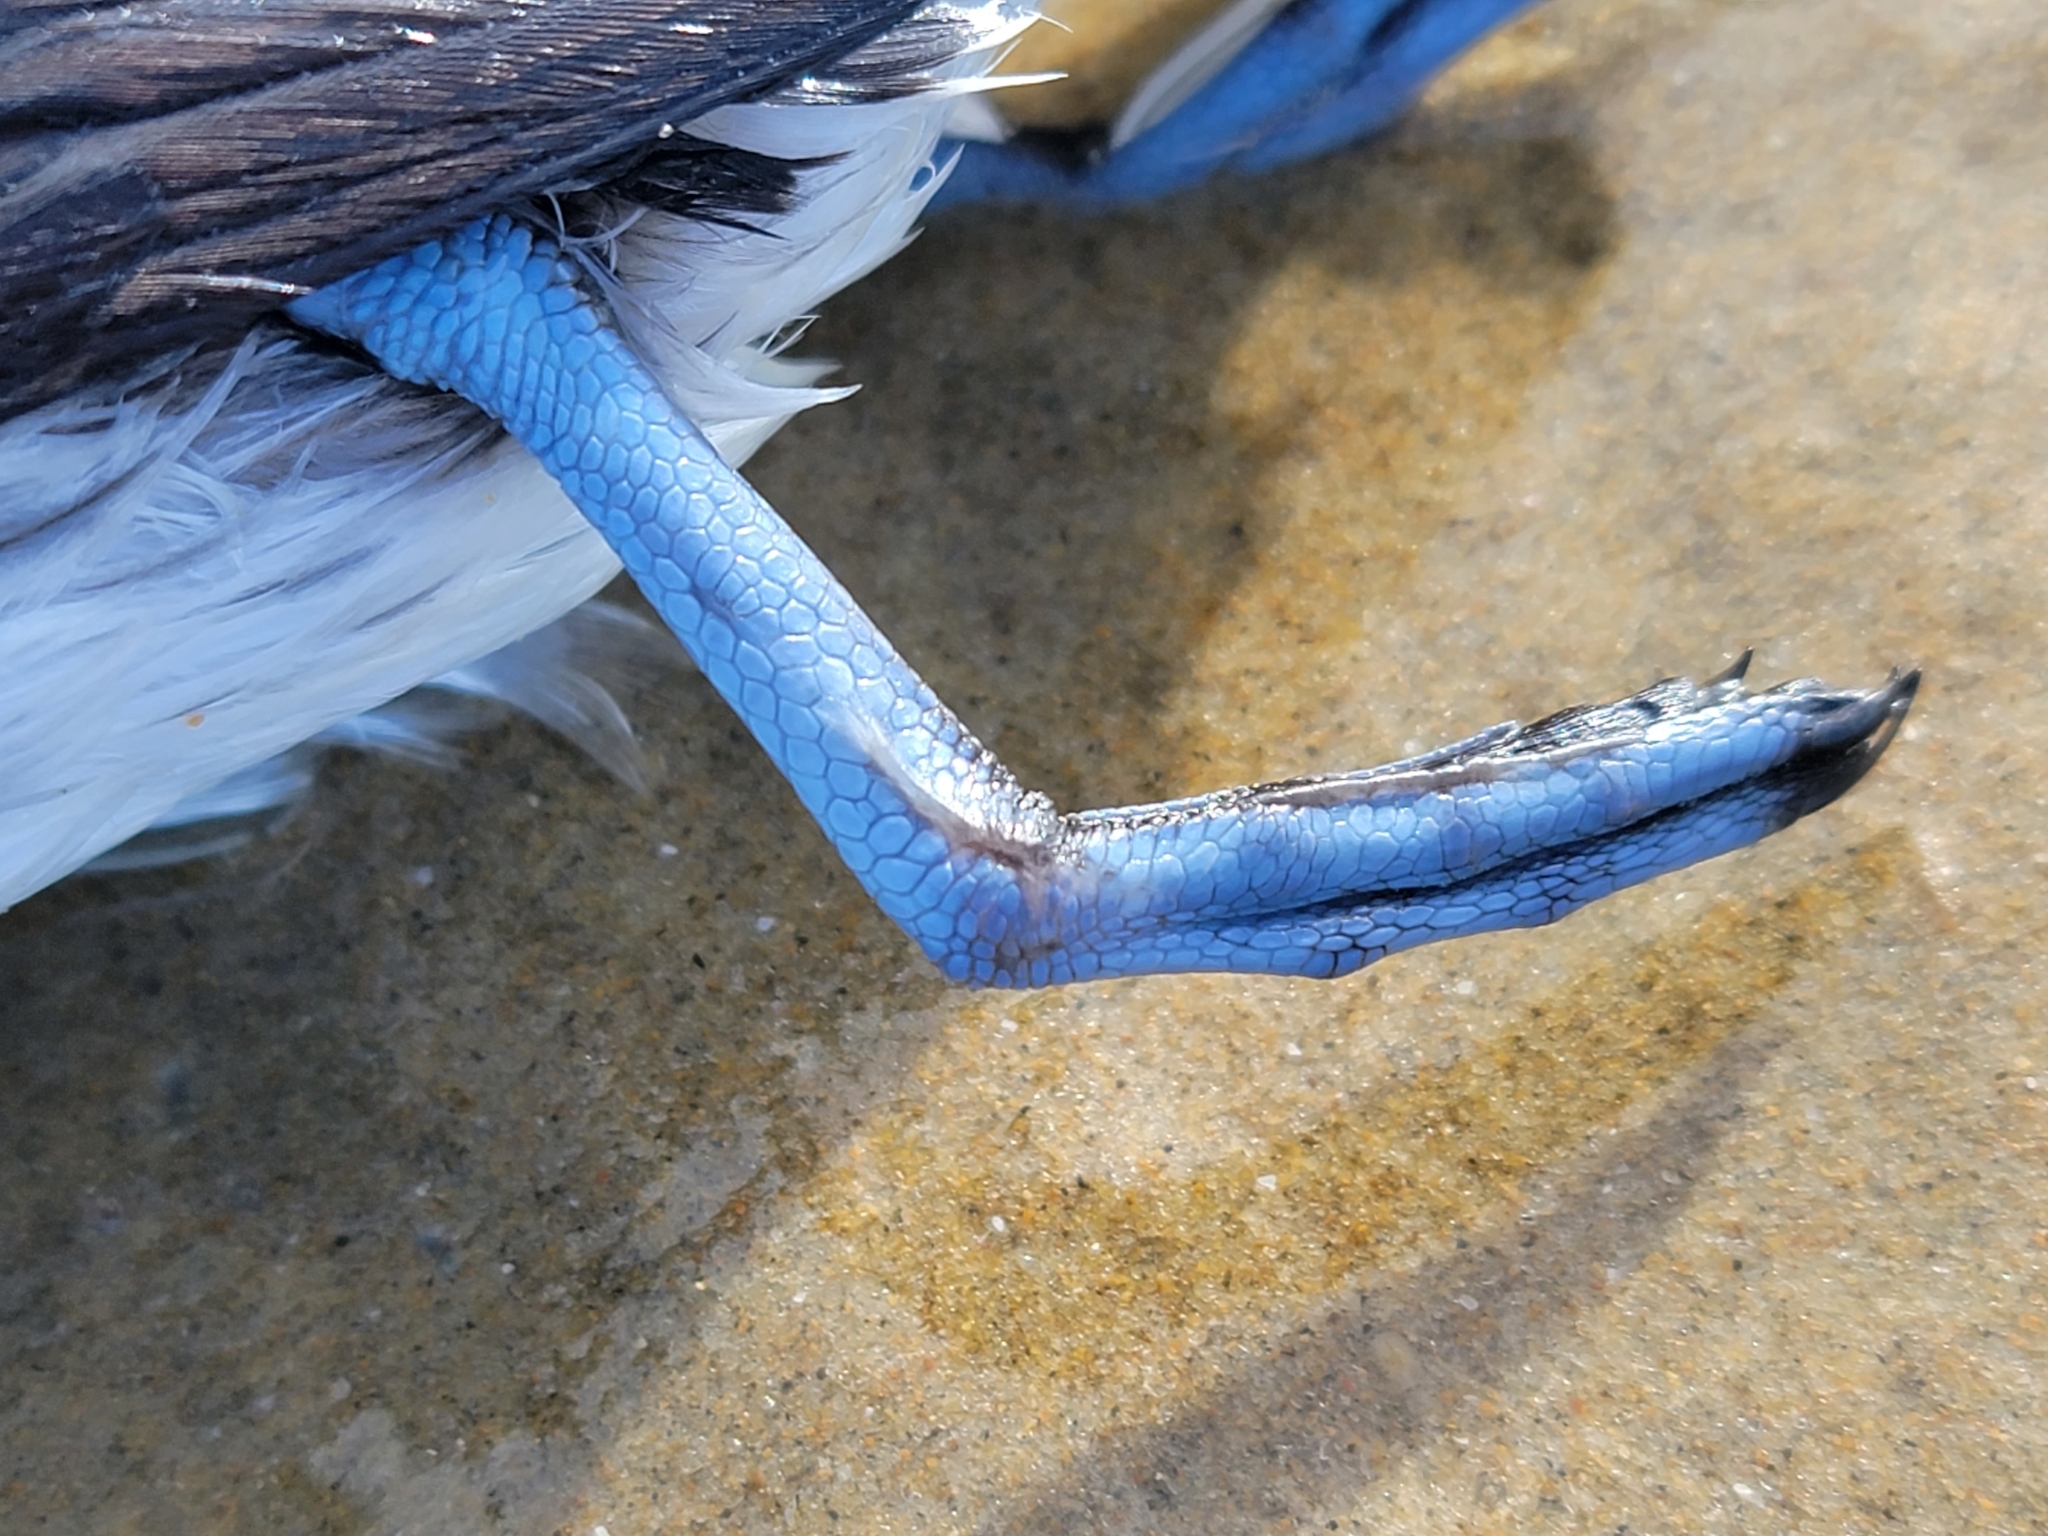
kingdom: Animalia
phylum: Chordata
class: Aves
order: Procellariiformes
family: Pelecanoididae
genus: Pelecanoides
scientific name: Pelecanoides urinatrix
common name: Common diving-petrel
